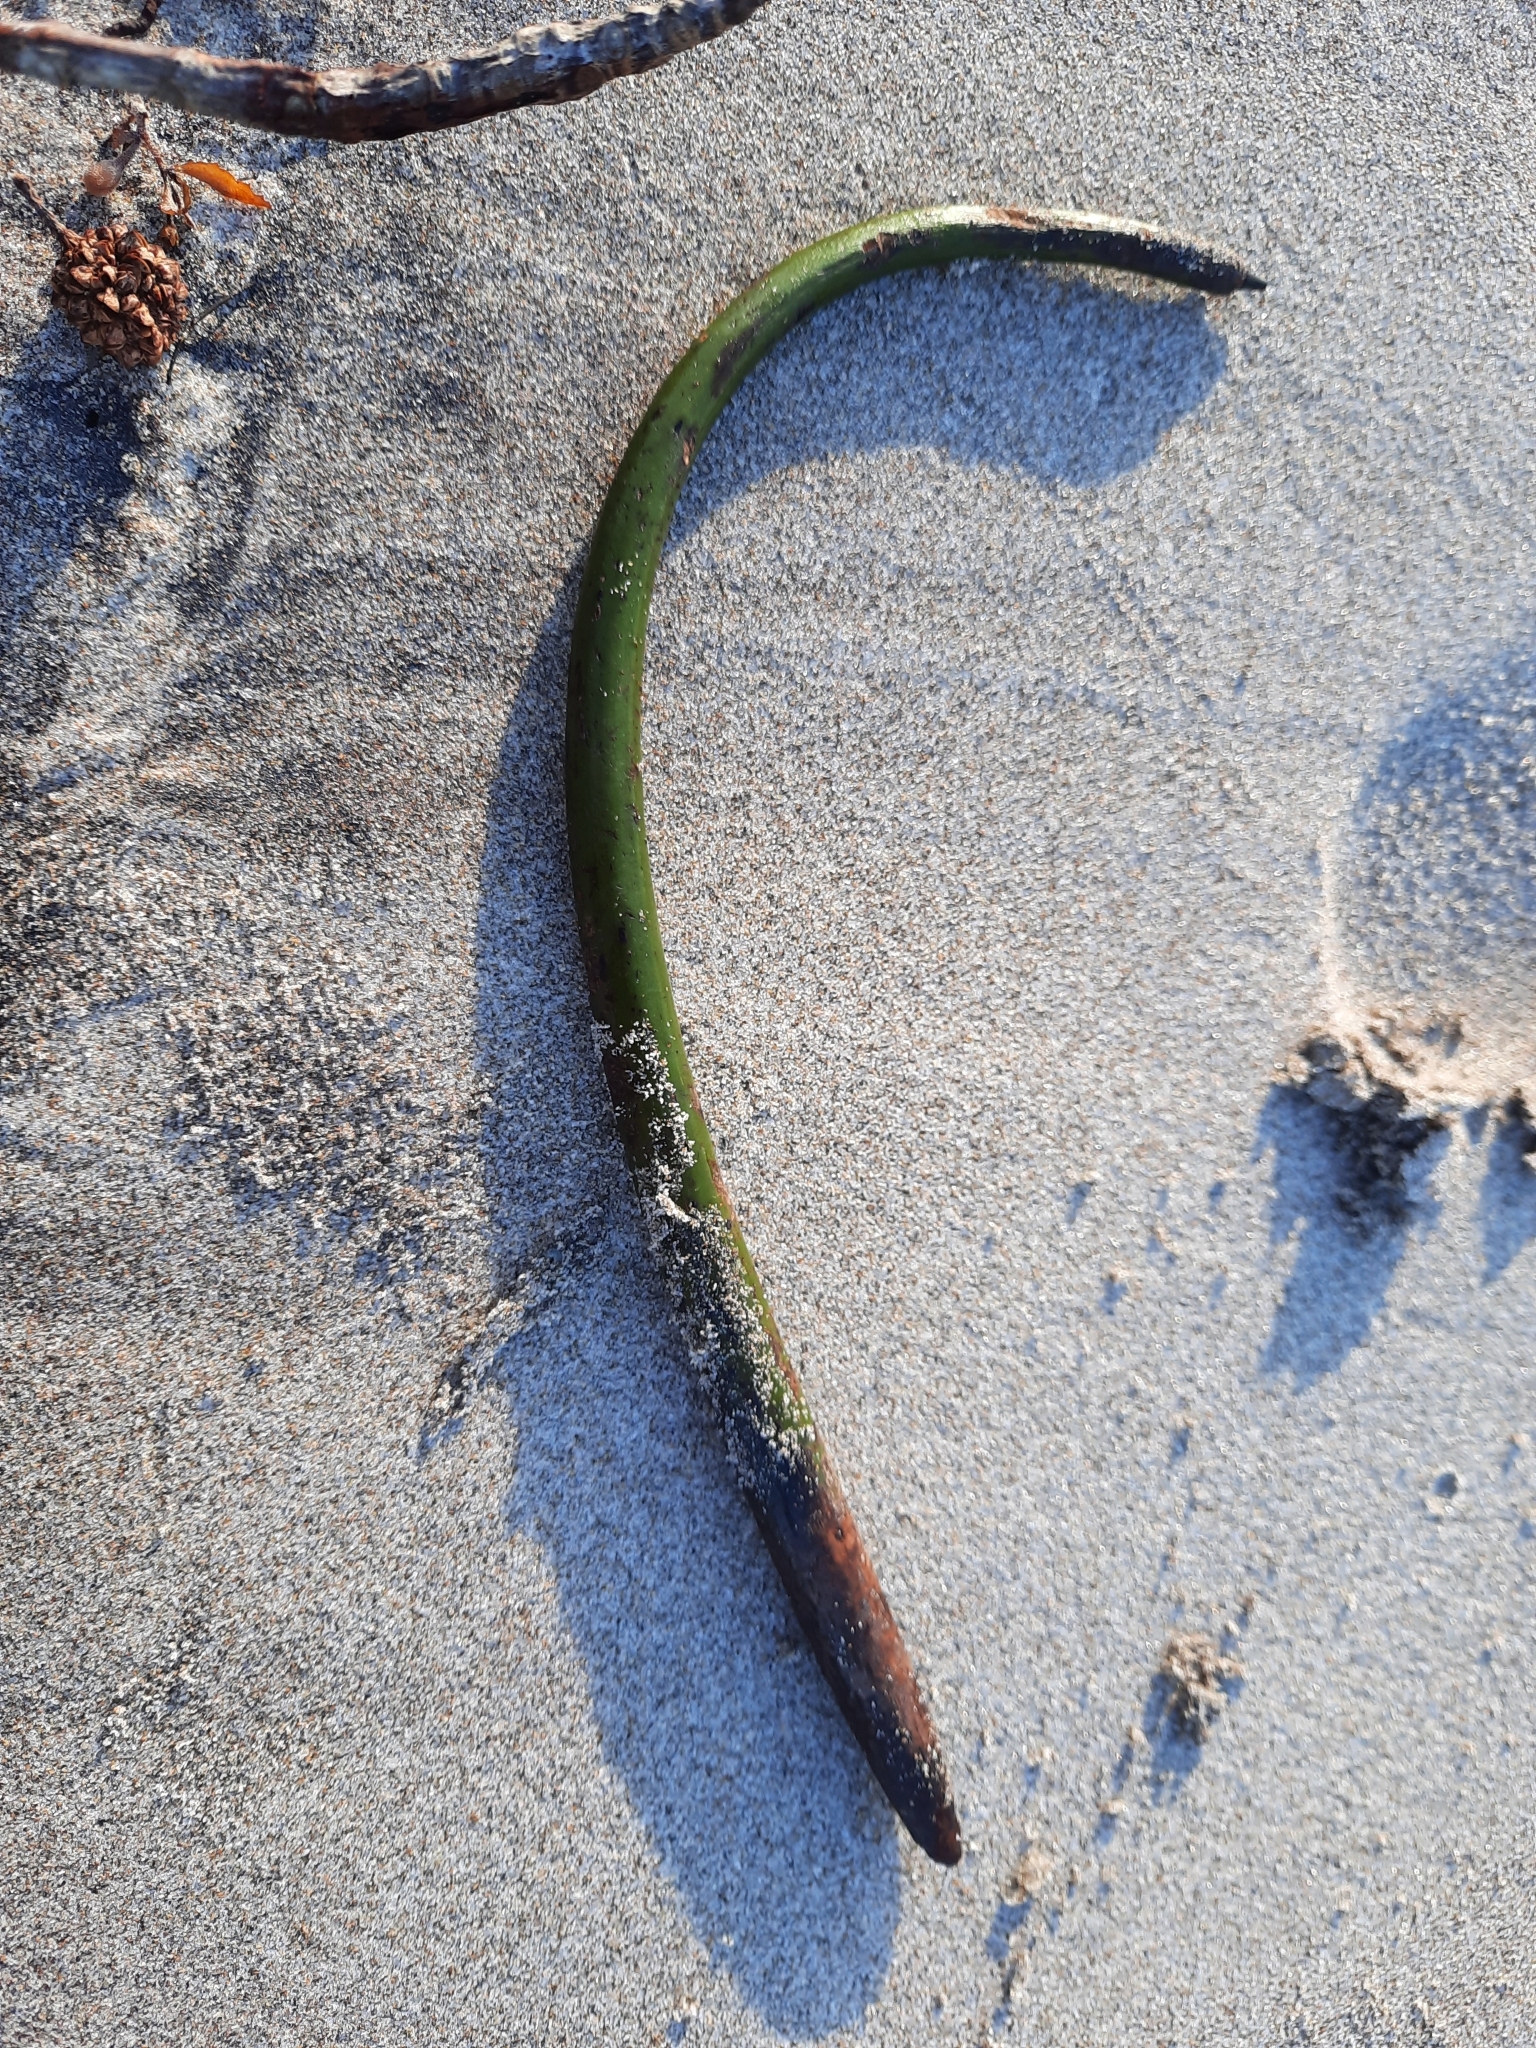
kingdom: Plantae
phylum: Tracheophyta
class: Magnoliopsida
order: Malpighiales
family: Rhizophoraceae
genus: Rhizophora
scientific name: Rhizophora mangle
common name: Red mangrove
